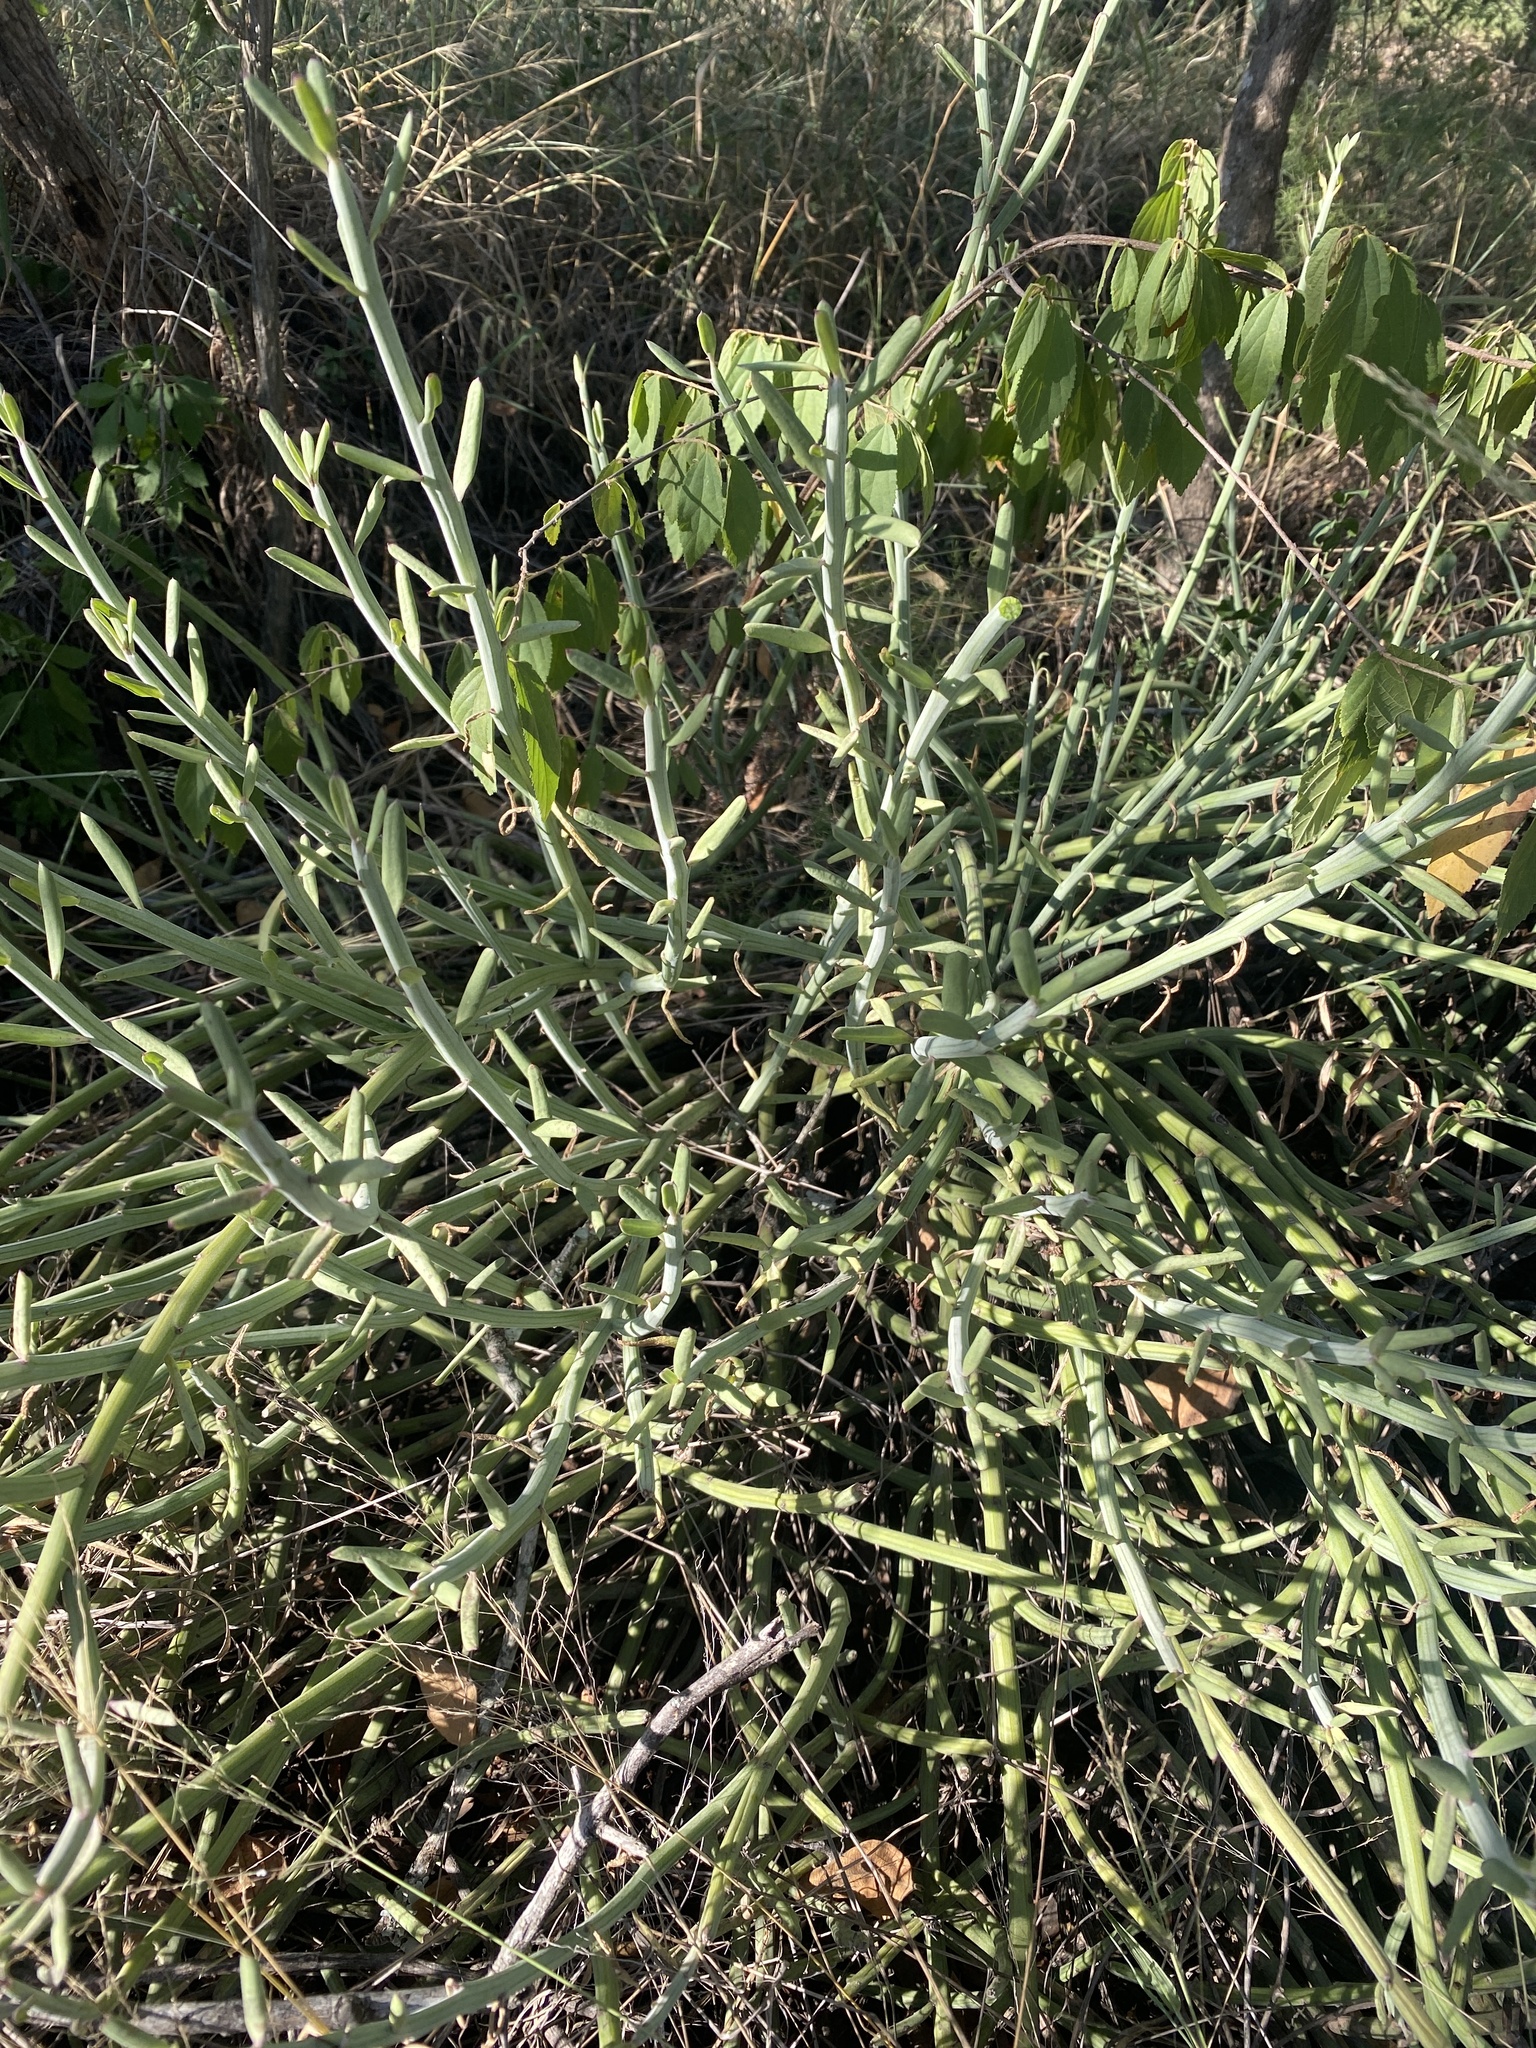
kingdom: Plantae
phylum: Tracheophyta
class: Magnoliopsida
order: Asterales
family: Asteraceae
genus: Curio
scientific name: Curio avasimontanus
